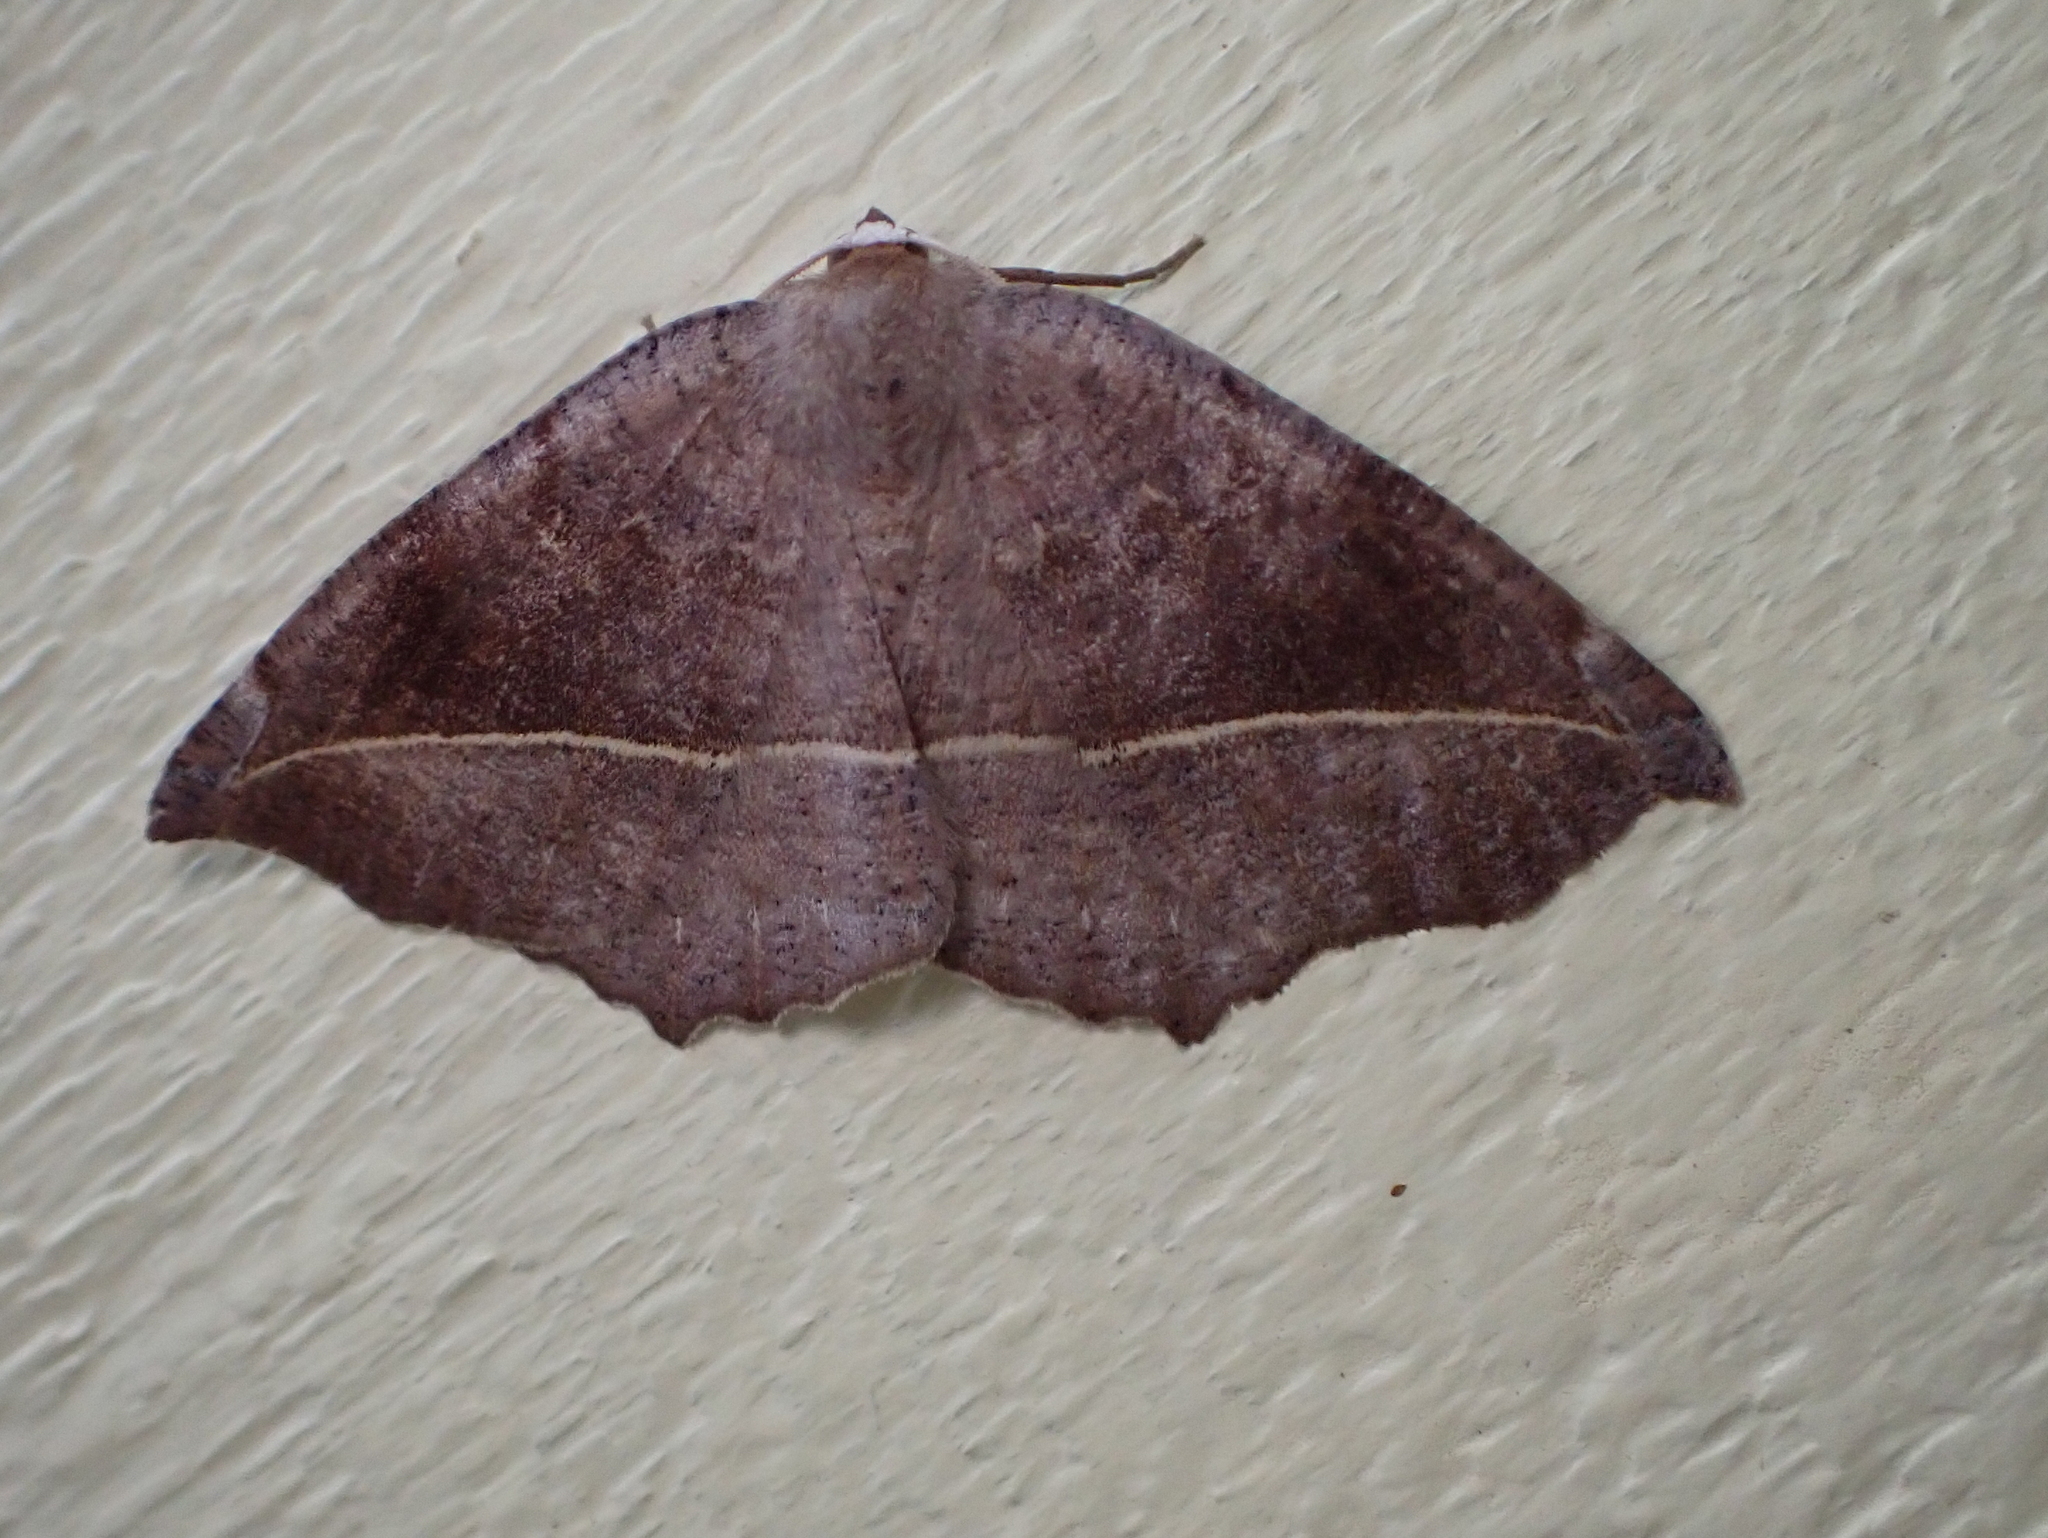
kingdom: Animalia
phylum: Arthropoda
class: Insecta
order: Lepidoptera
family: Geometridae
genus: Eutrapela
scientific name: Eutrapela clemataria
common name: Curved-toothed geometer
